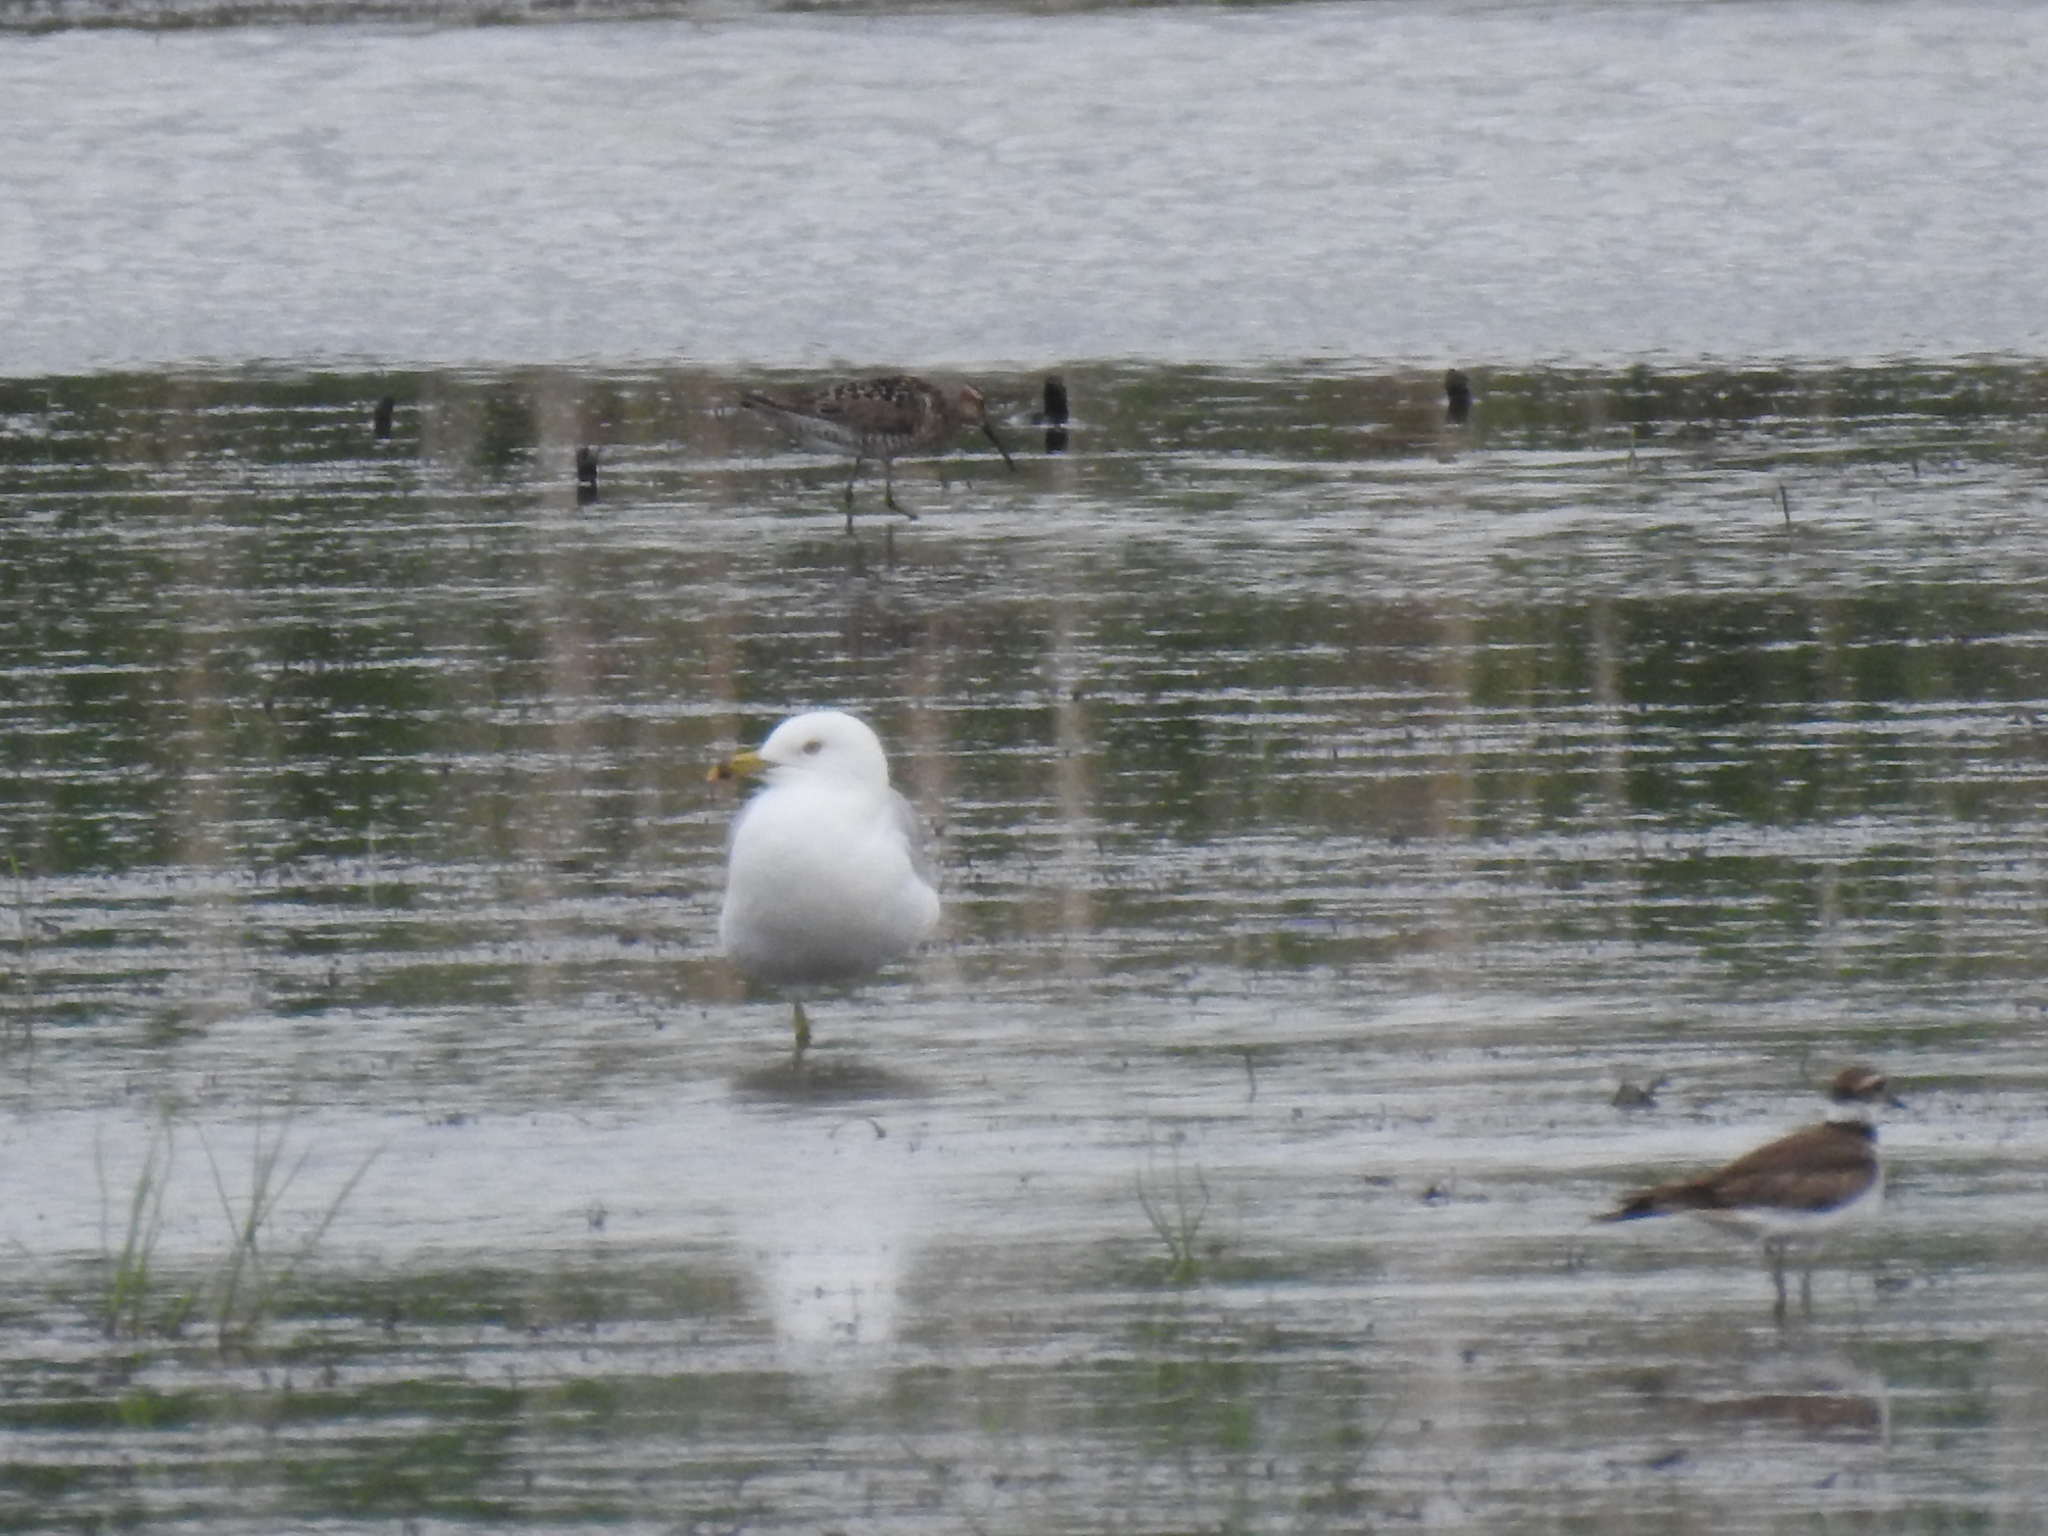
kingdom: Animalia
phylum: Chordata
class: Aves
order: Charadriiformes
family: Laridae
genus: Larus
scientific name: Larus delawarensis
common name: Ring-billed gull
